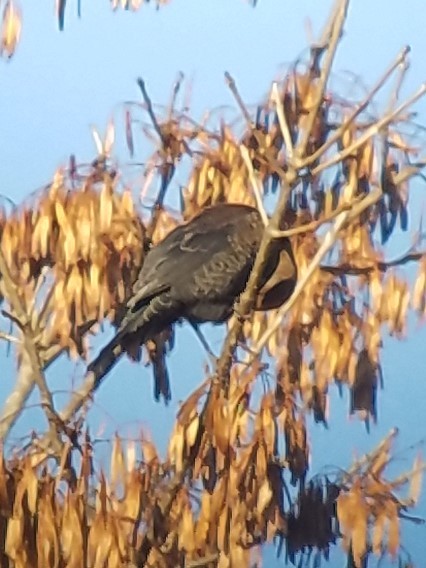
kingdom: Animalia
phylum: Chordata
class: Aves
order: Passeriformes
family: Icteridae
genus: Euphagus
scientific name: Euphagus carolinus
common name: Rusty blackbird
